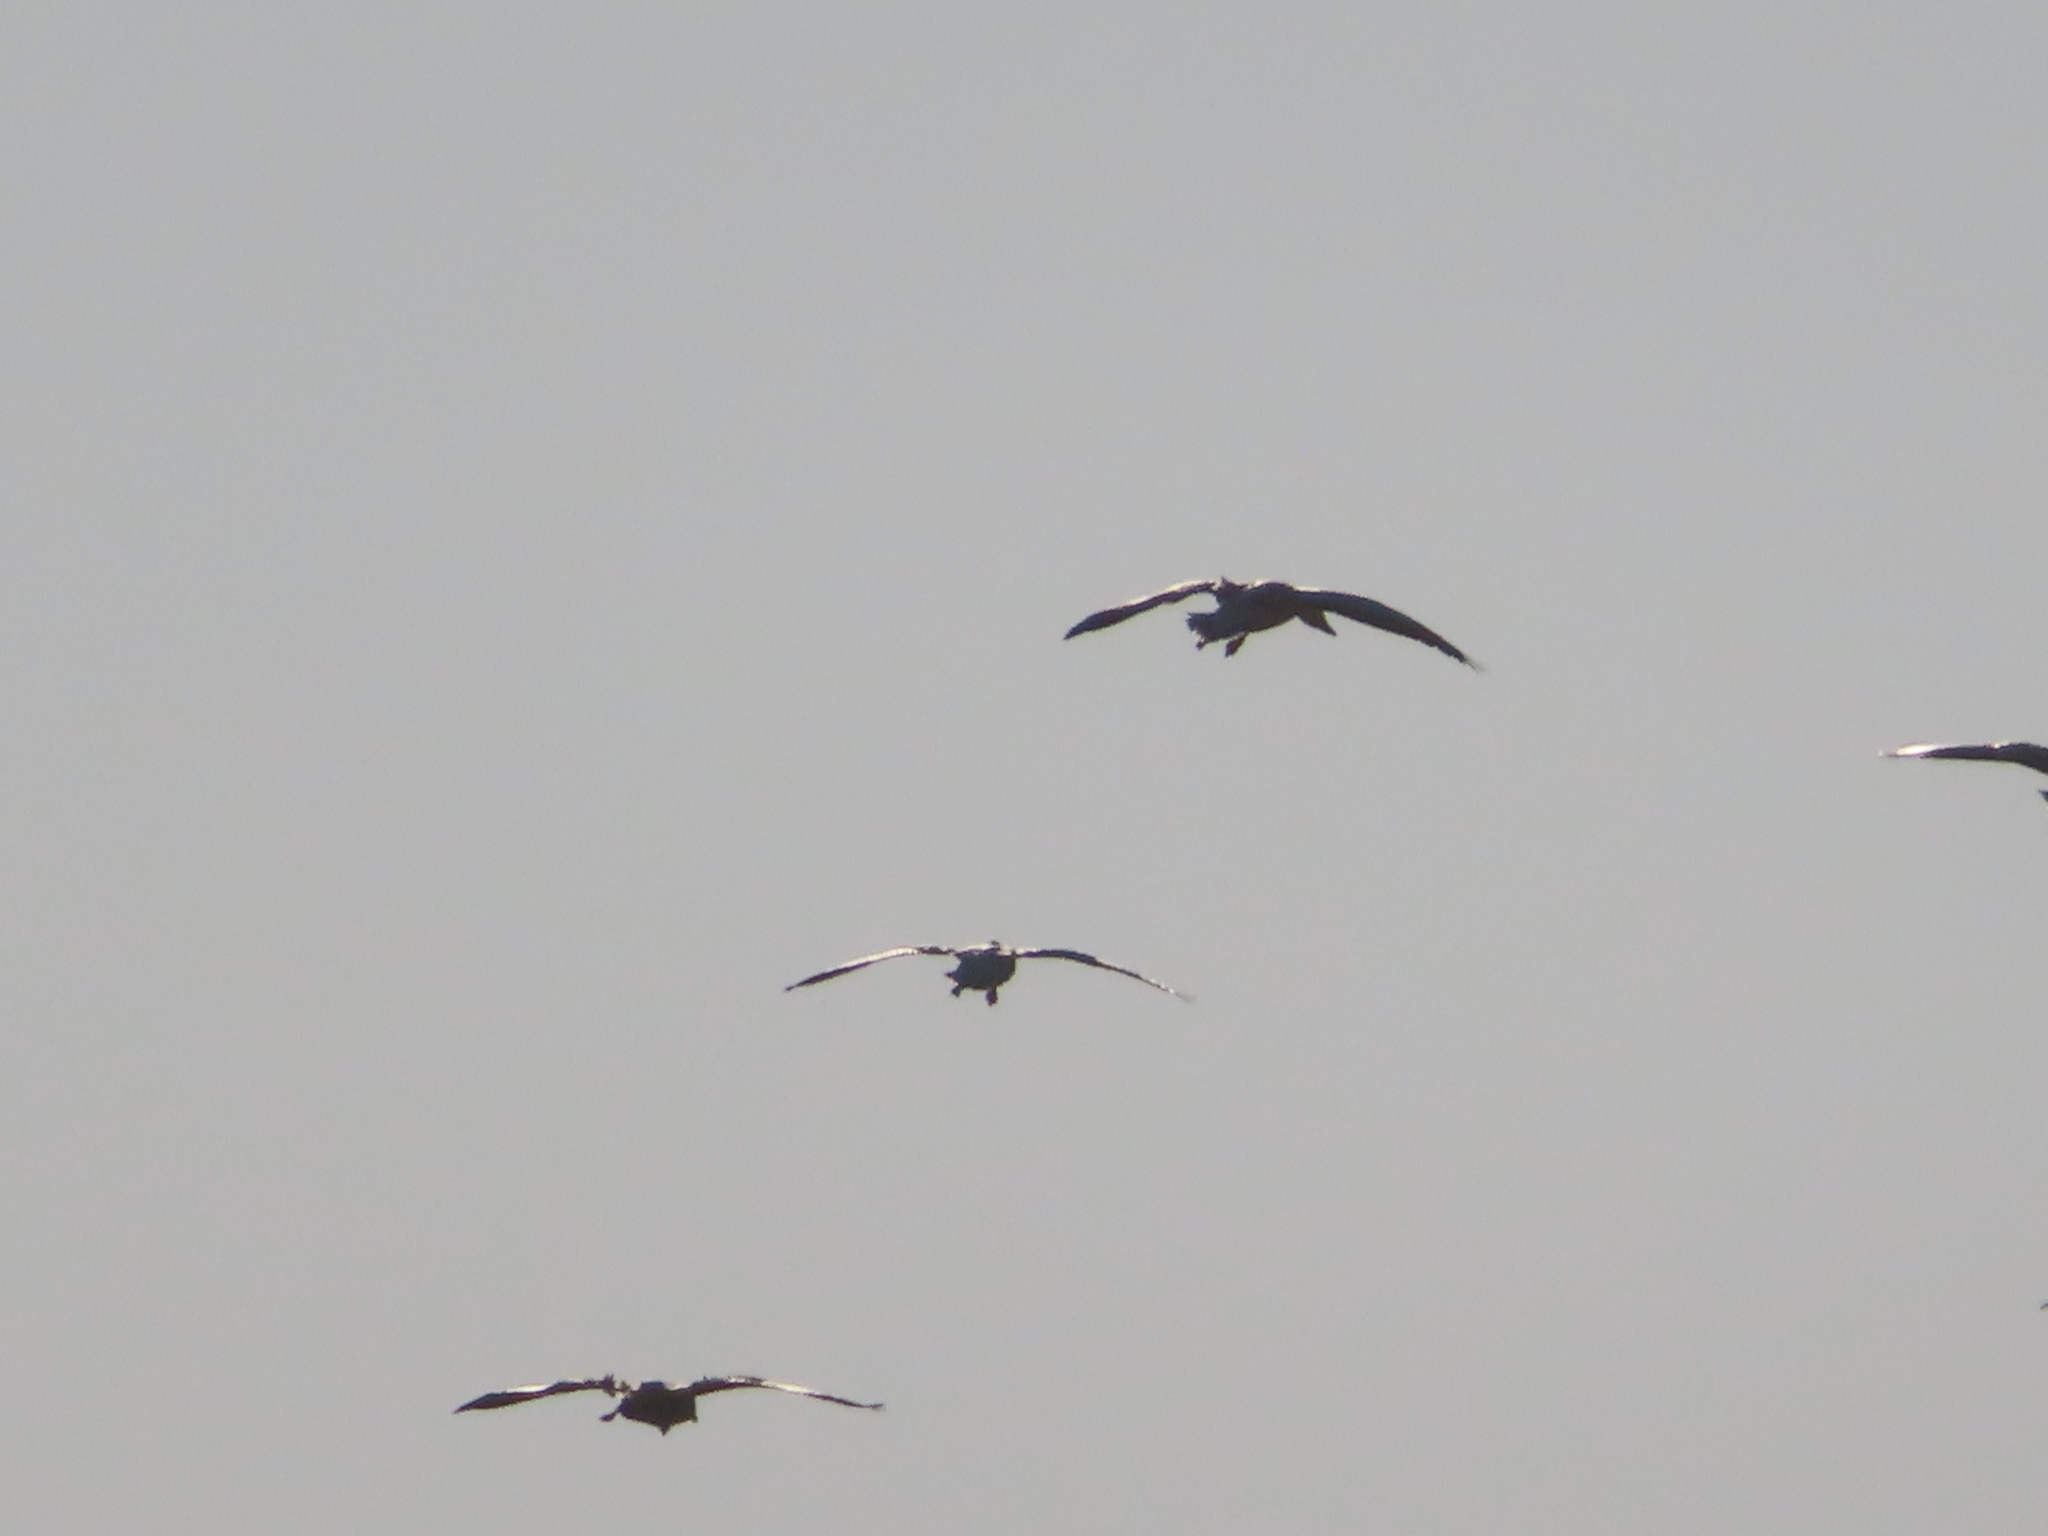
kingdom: Animalia
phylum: Chordata
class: Aves
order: Anseriformes
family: Anatidae
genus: Anser
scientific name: Anser caerulescens
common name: Snow goose
